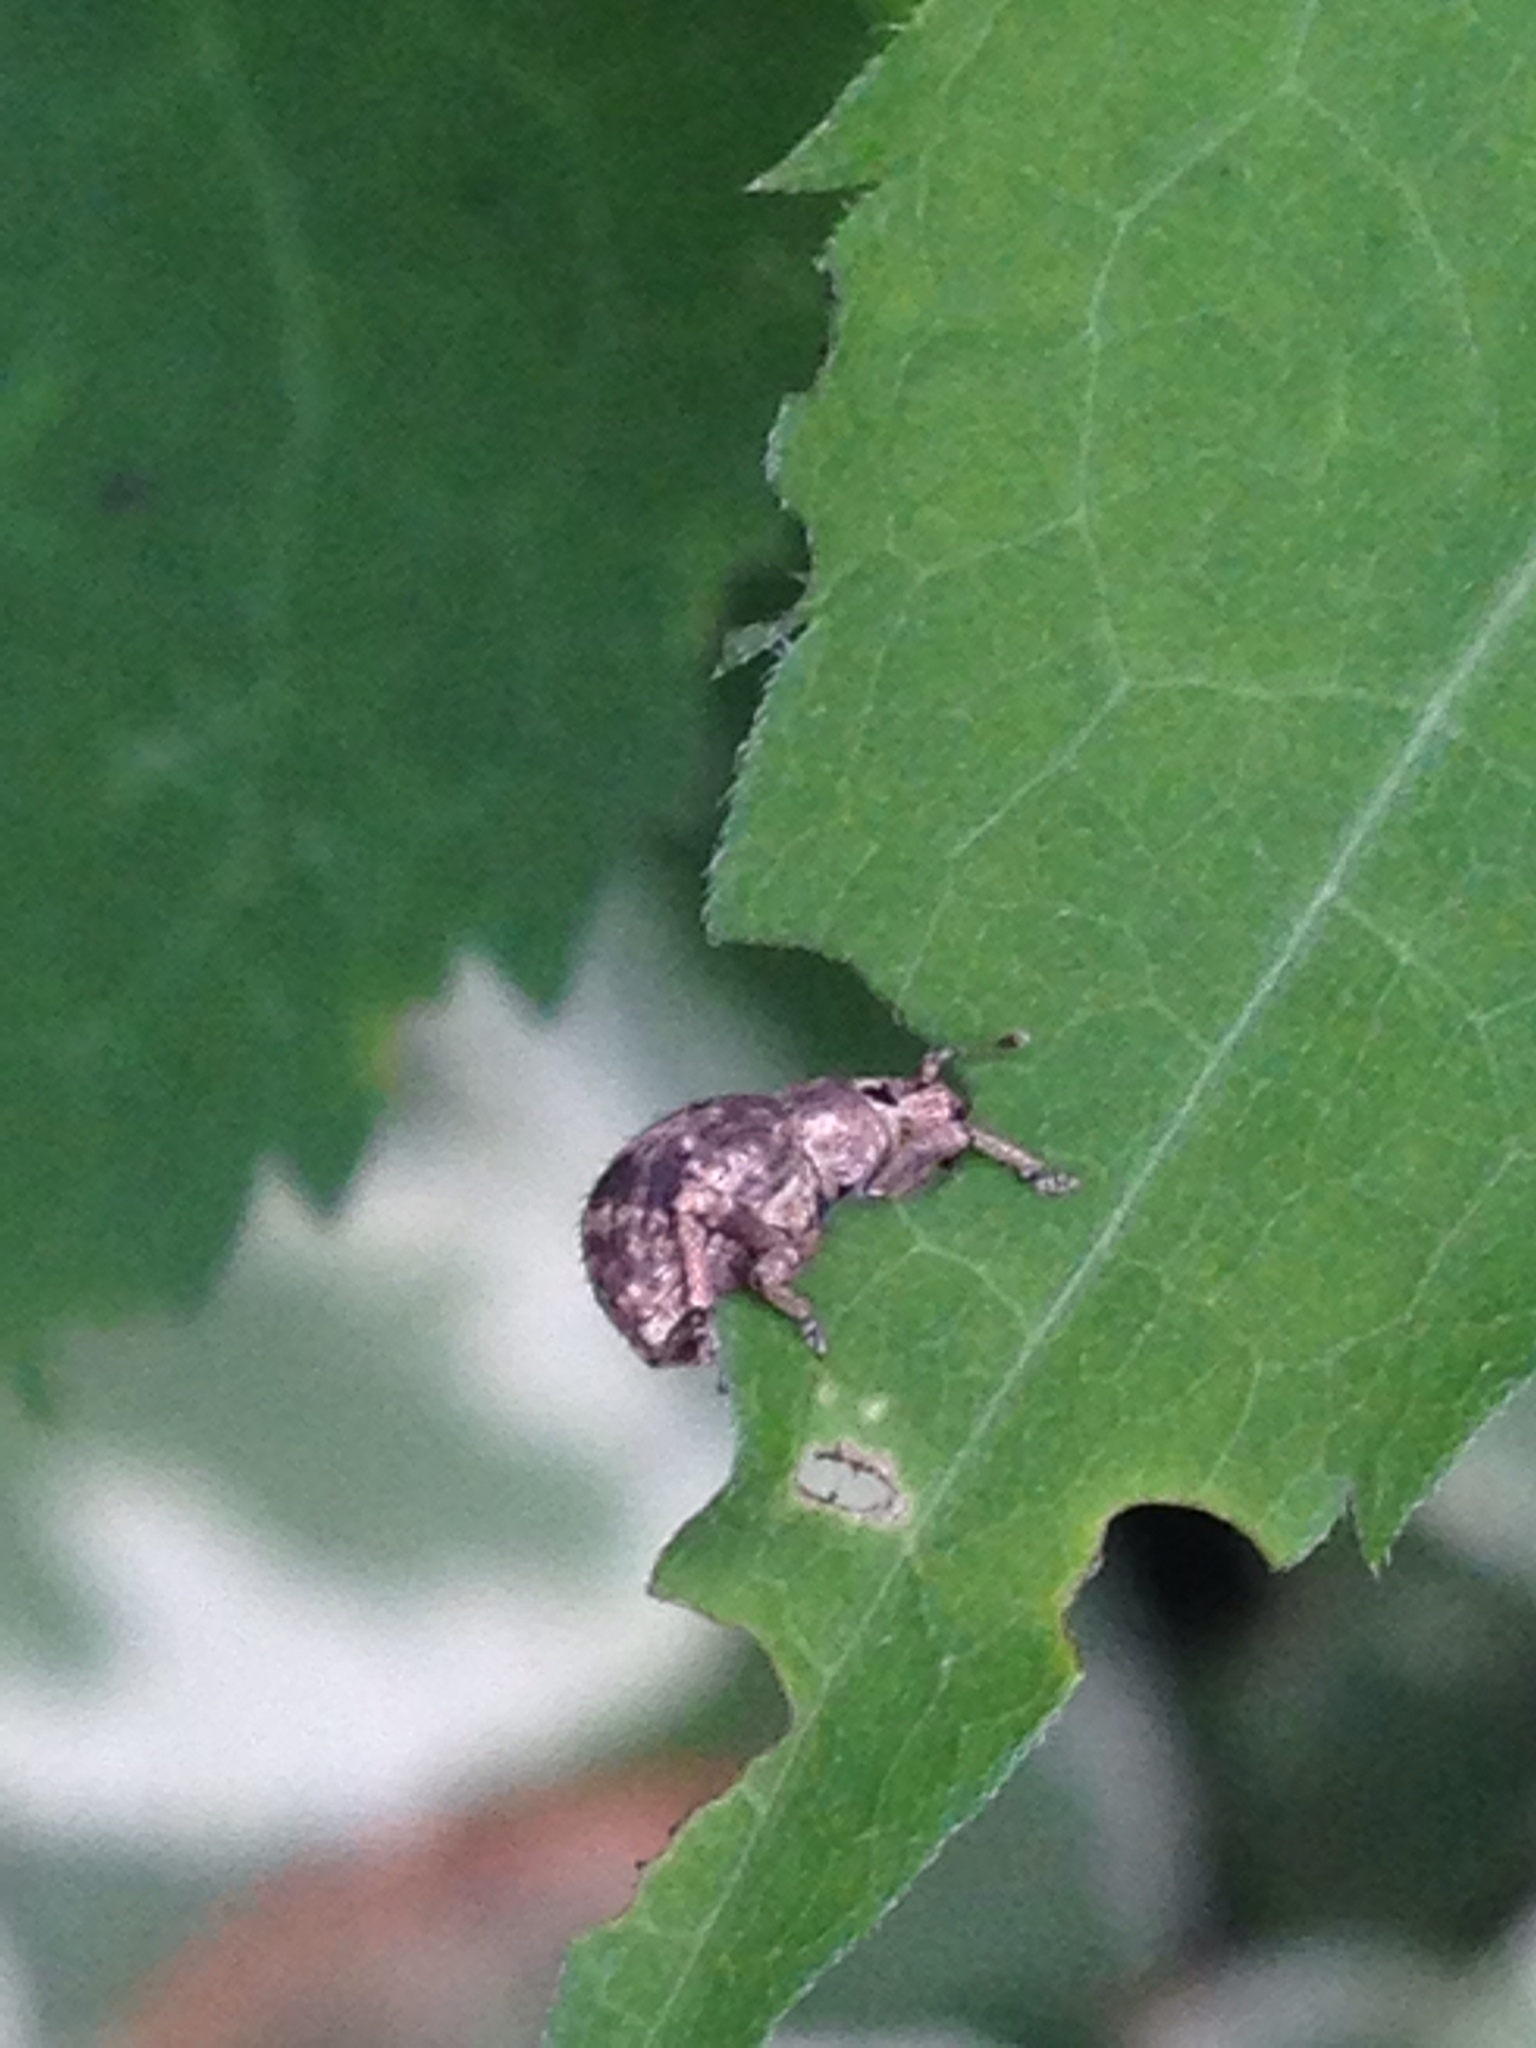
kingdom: Animalia
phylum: Arthropoda
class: Insecta
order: Coleoptera
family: Curculionidae
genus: Pseudocneorhinus
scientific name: Pseudocneorhinus bifasciatus
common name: Two-banded japanese weevil
